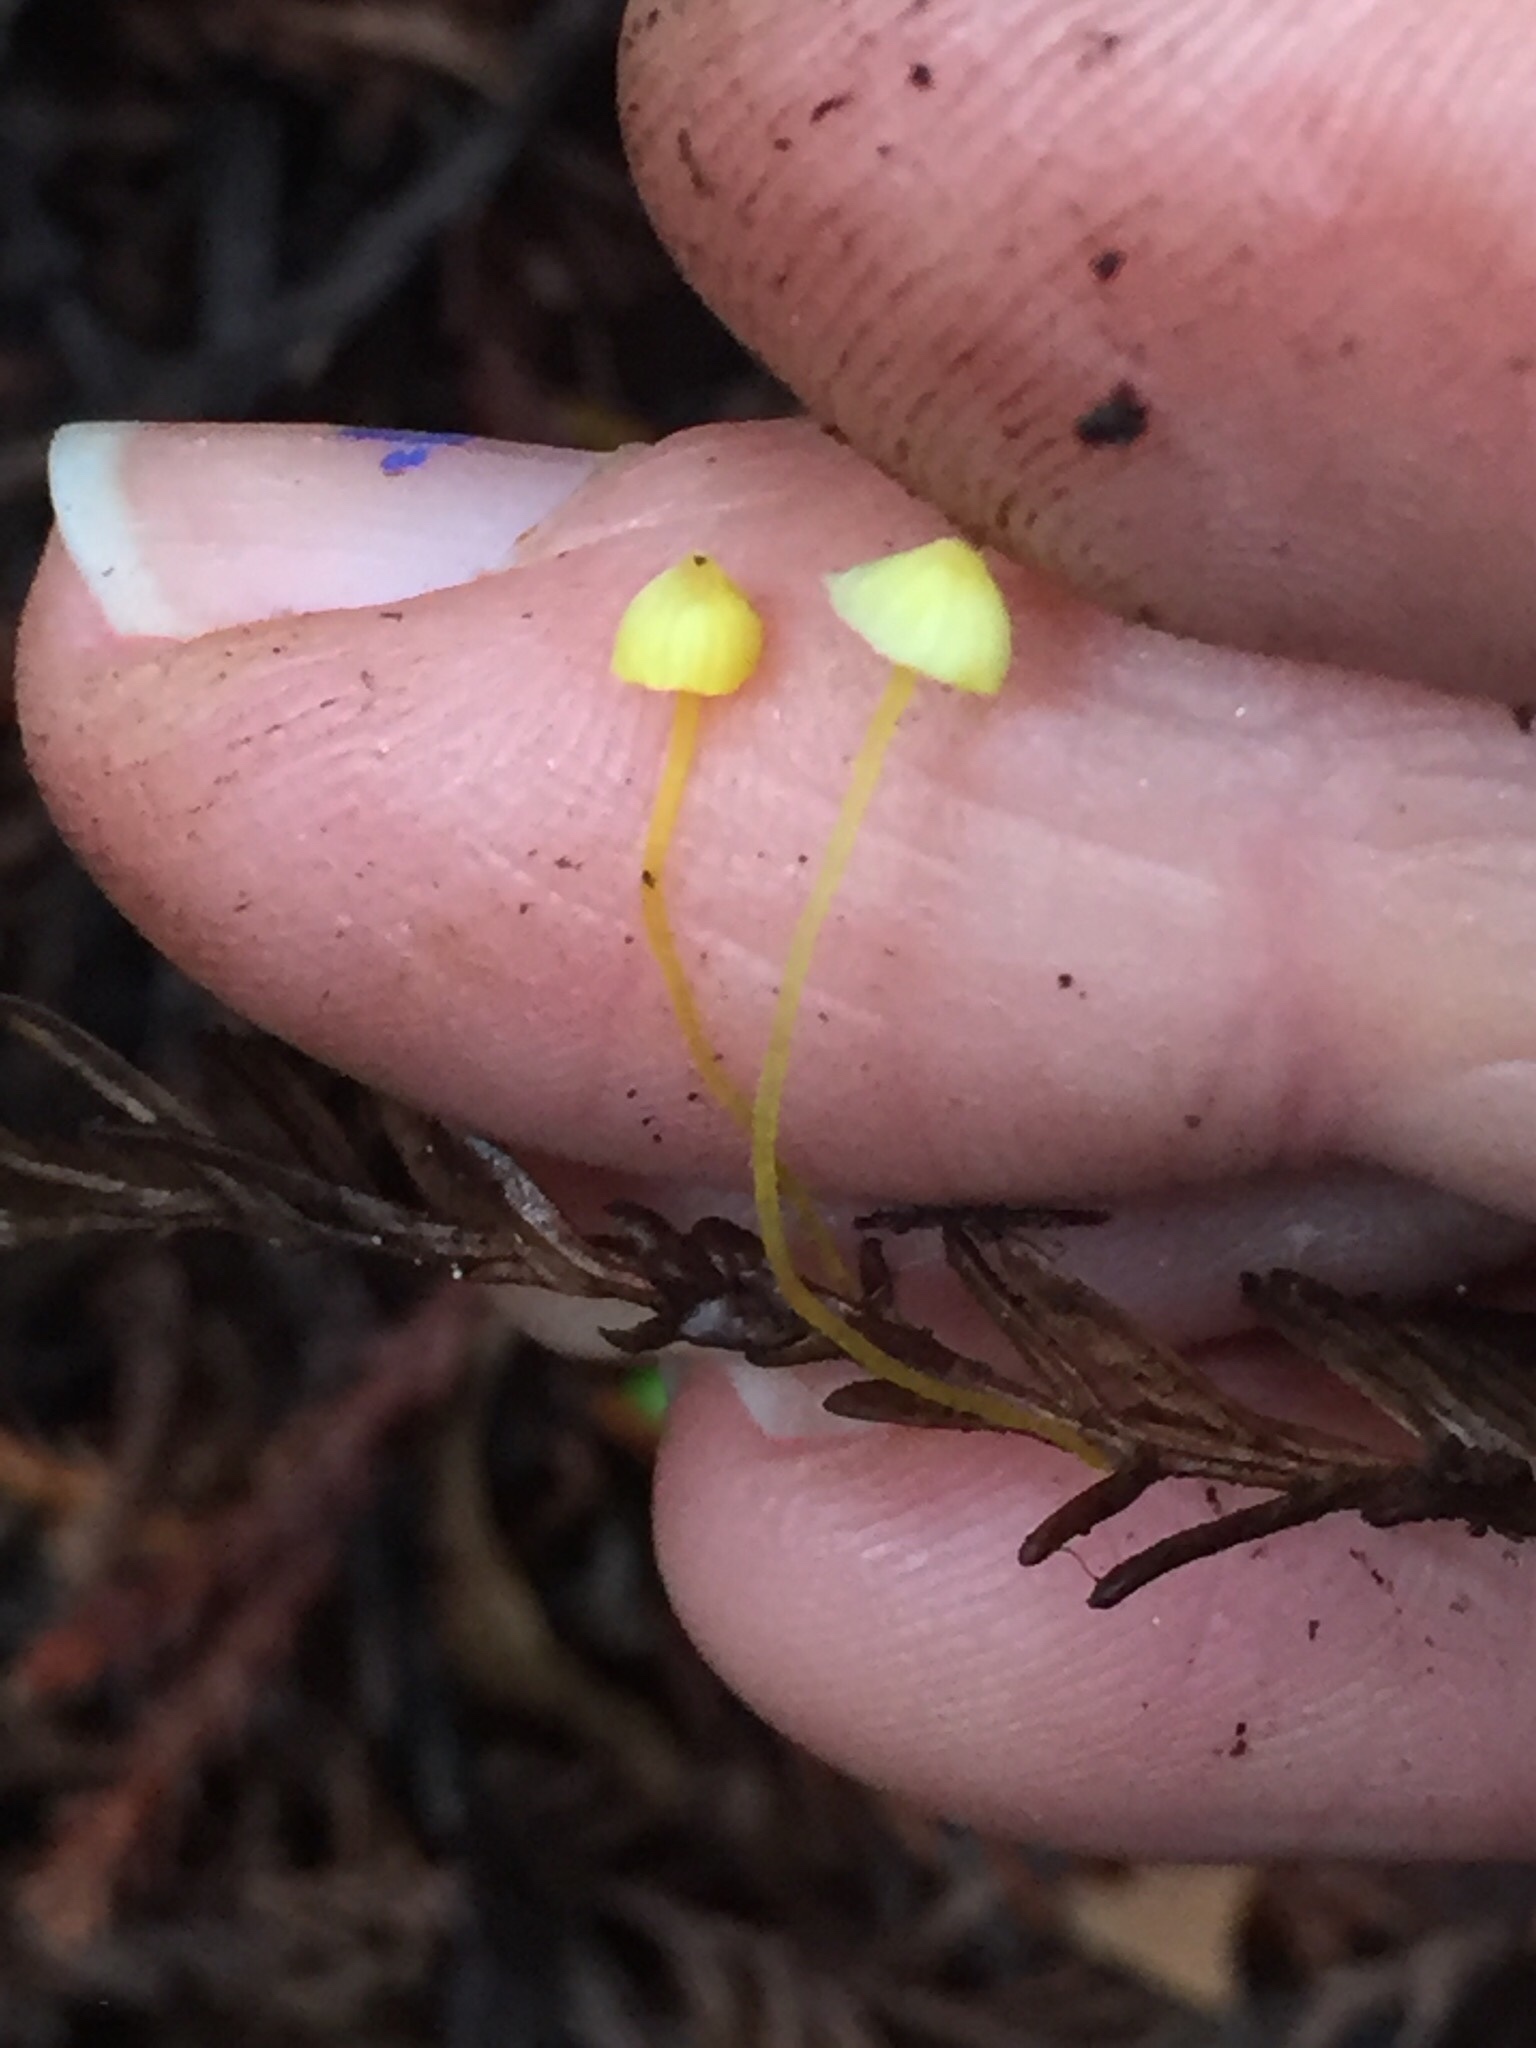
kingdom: Fungi
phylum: Basidiomycota
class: Agaricomycetes
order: Agaricales
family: Mycenaceae
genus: Mycena
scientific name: Mycena oregonensis
